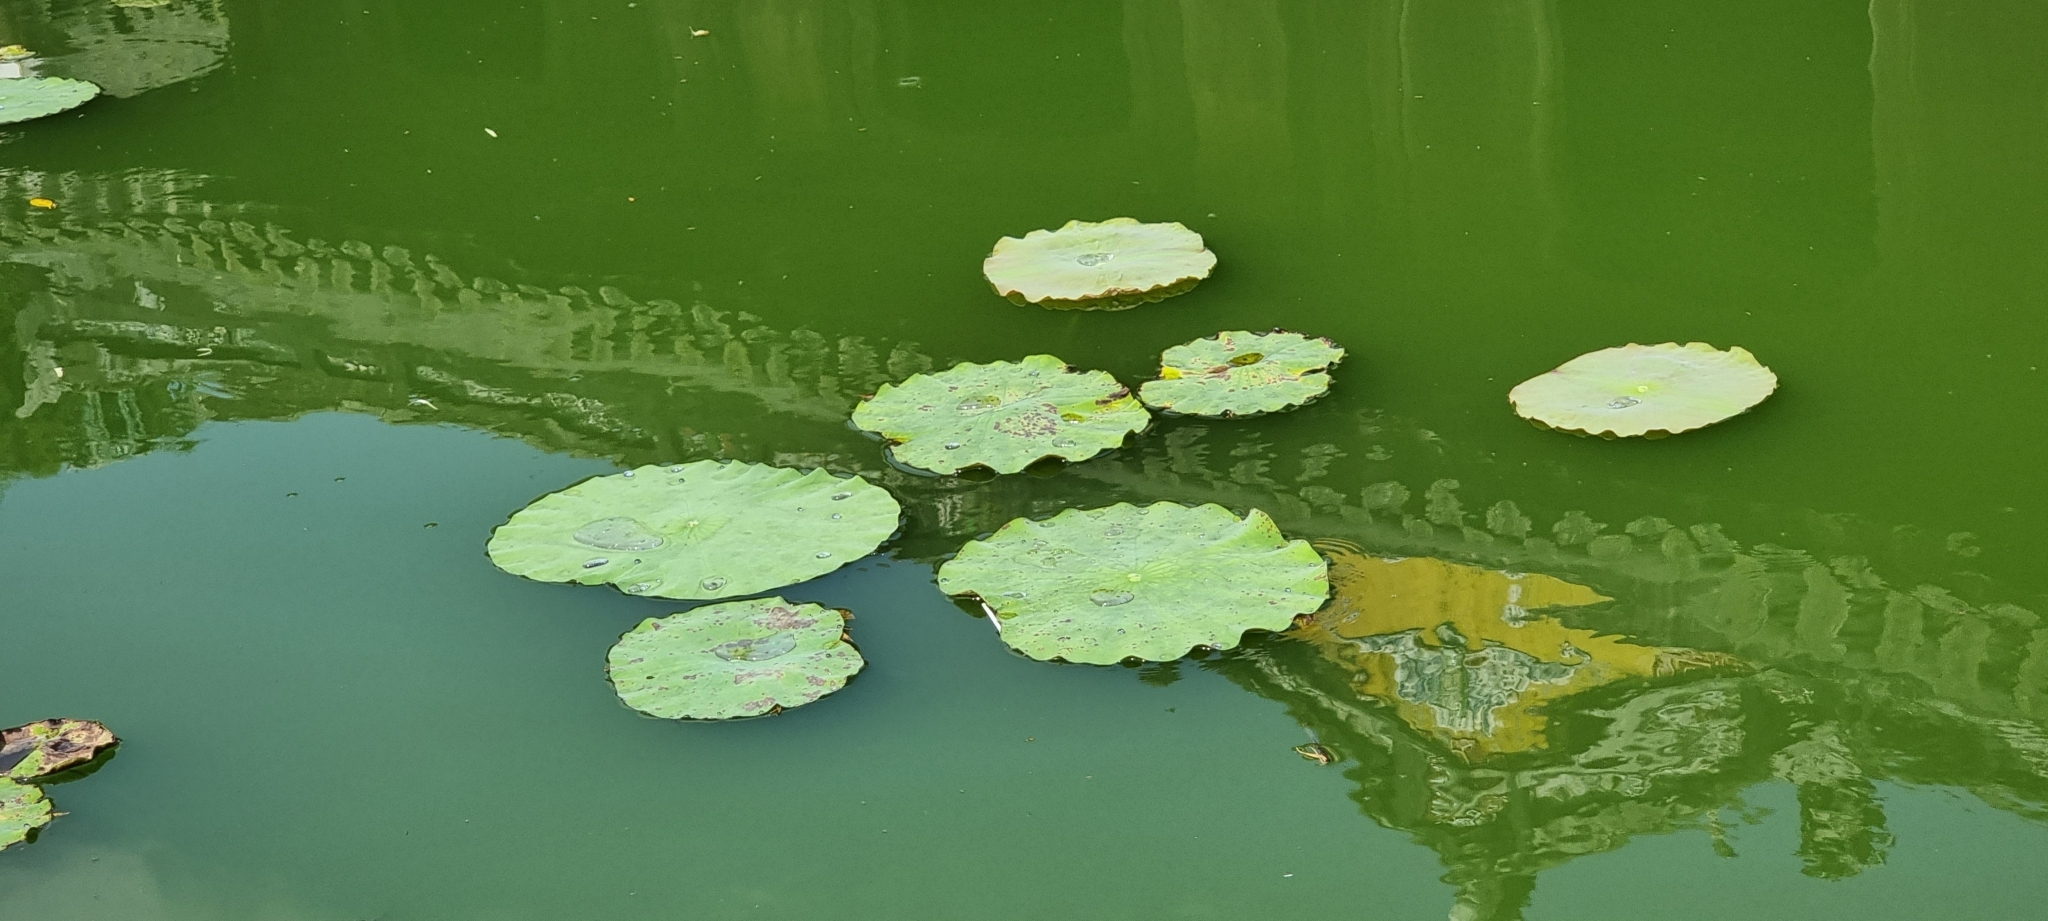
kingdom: Plantae
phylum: Tracheophyta
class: Magnoliopsida
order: Proteales
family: Nelumbonaceae
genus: Nelumbo
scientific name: Nelumbo nucifera
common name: Sacred lotus
